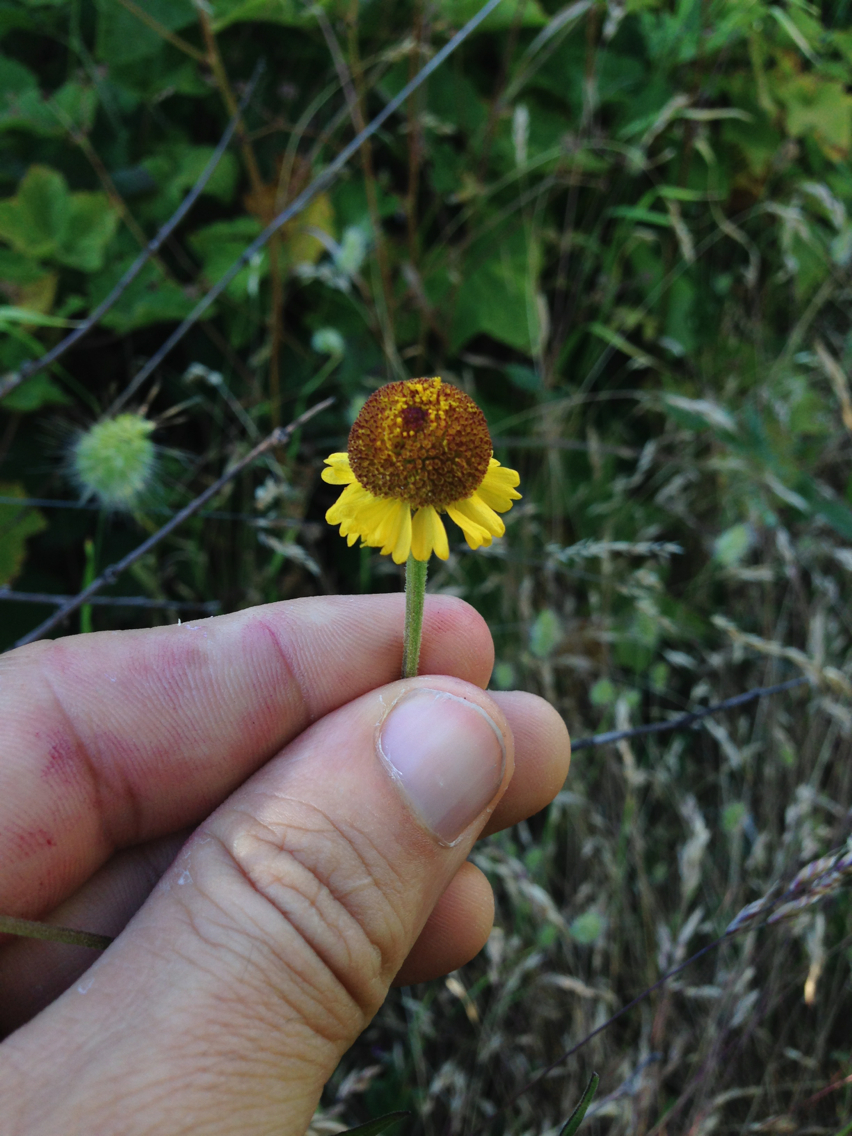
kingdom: Plantae
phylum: Tracheophyta
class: Magnoliopsida
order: Asterales
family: Asteraceae
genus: Helenium
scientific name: Helenium puberulum
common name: Sneezewort
